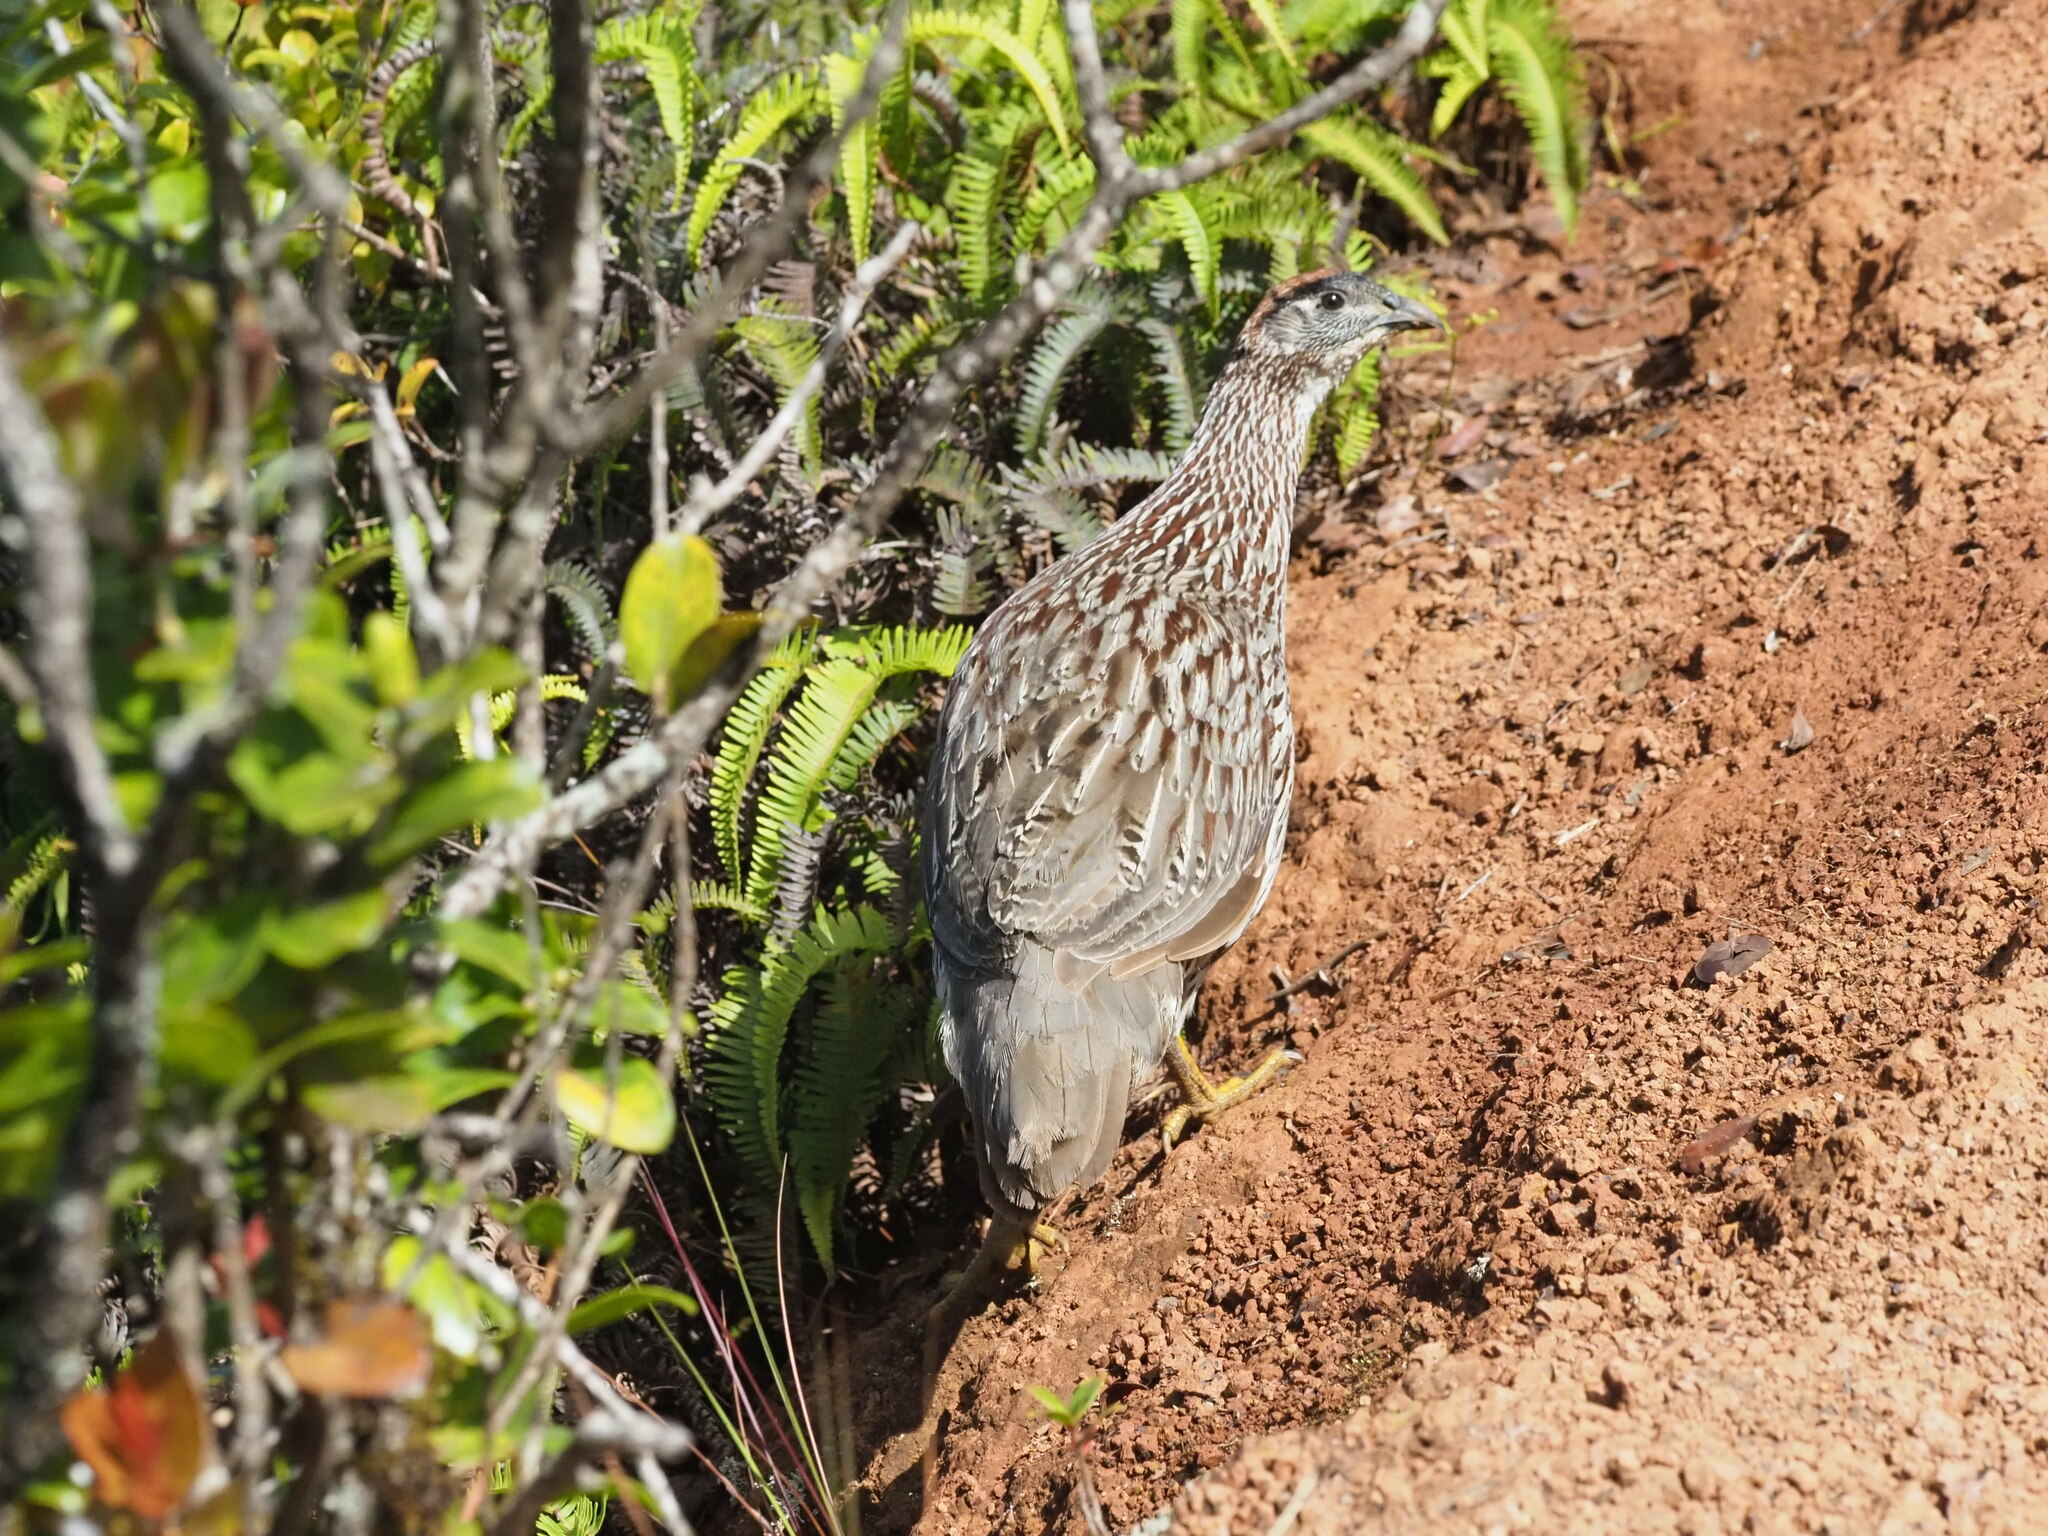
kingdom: Animalia
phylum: Chordata
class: Aves
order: Galliformes
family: Phasianidae
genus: Pternistis
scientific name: Pternistis erckelii
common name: Erckel's francolin
